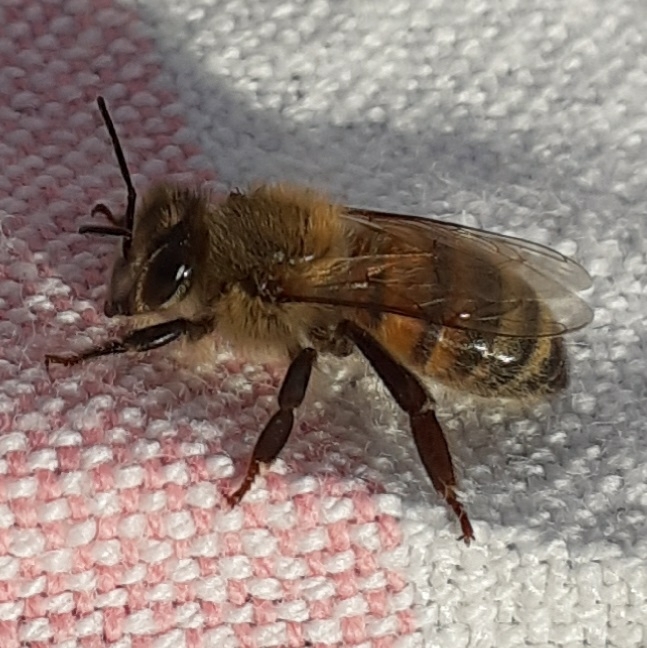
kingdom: Animalia
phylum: Arthropoda
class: Insecta
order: Hymenoptera
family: Apidae
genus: Apis
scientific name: Apis mellifera
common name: Honey bee
